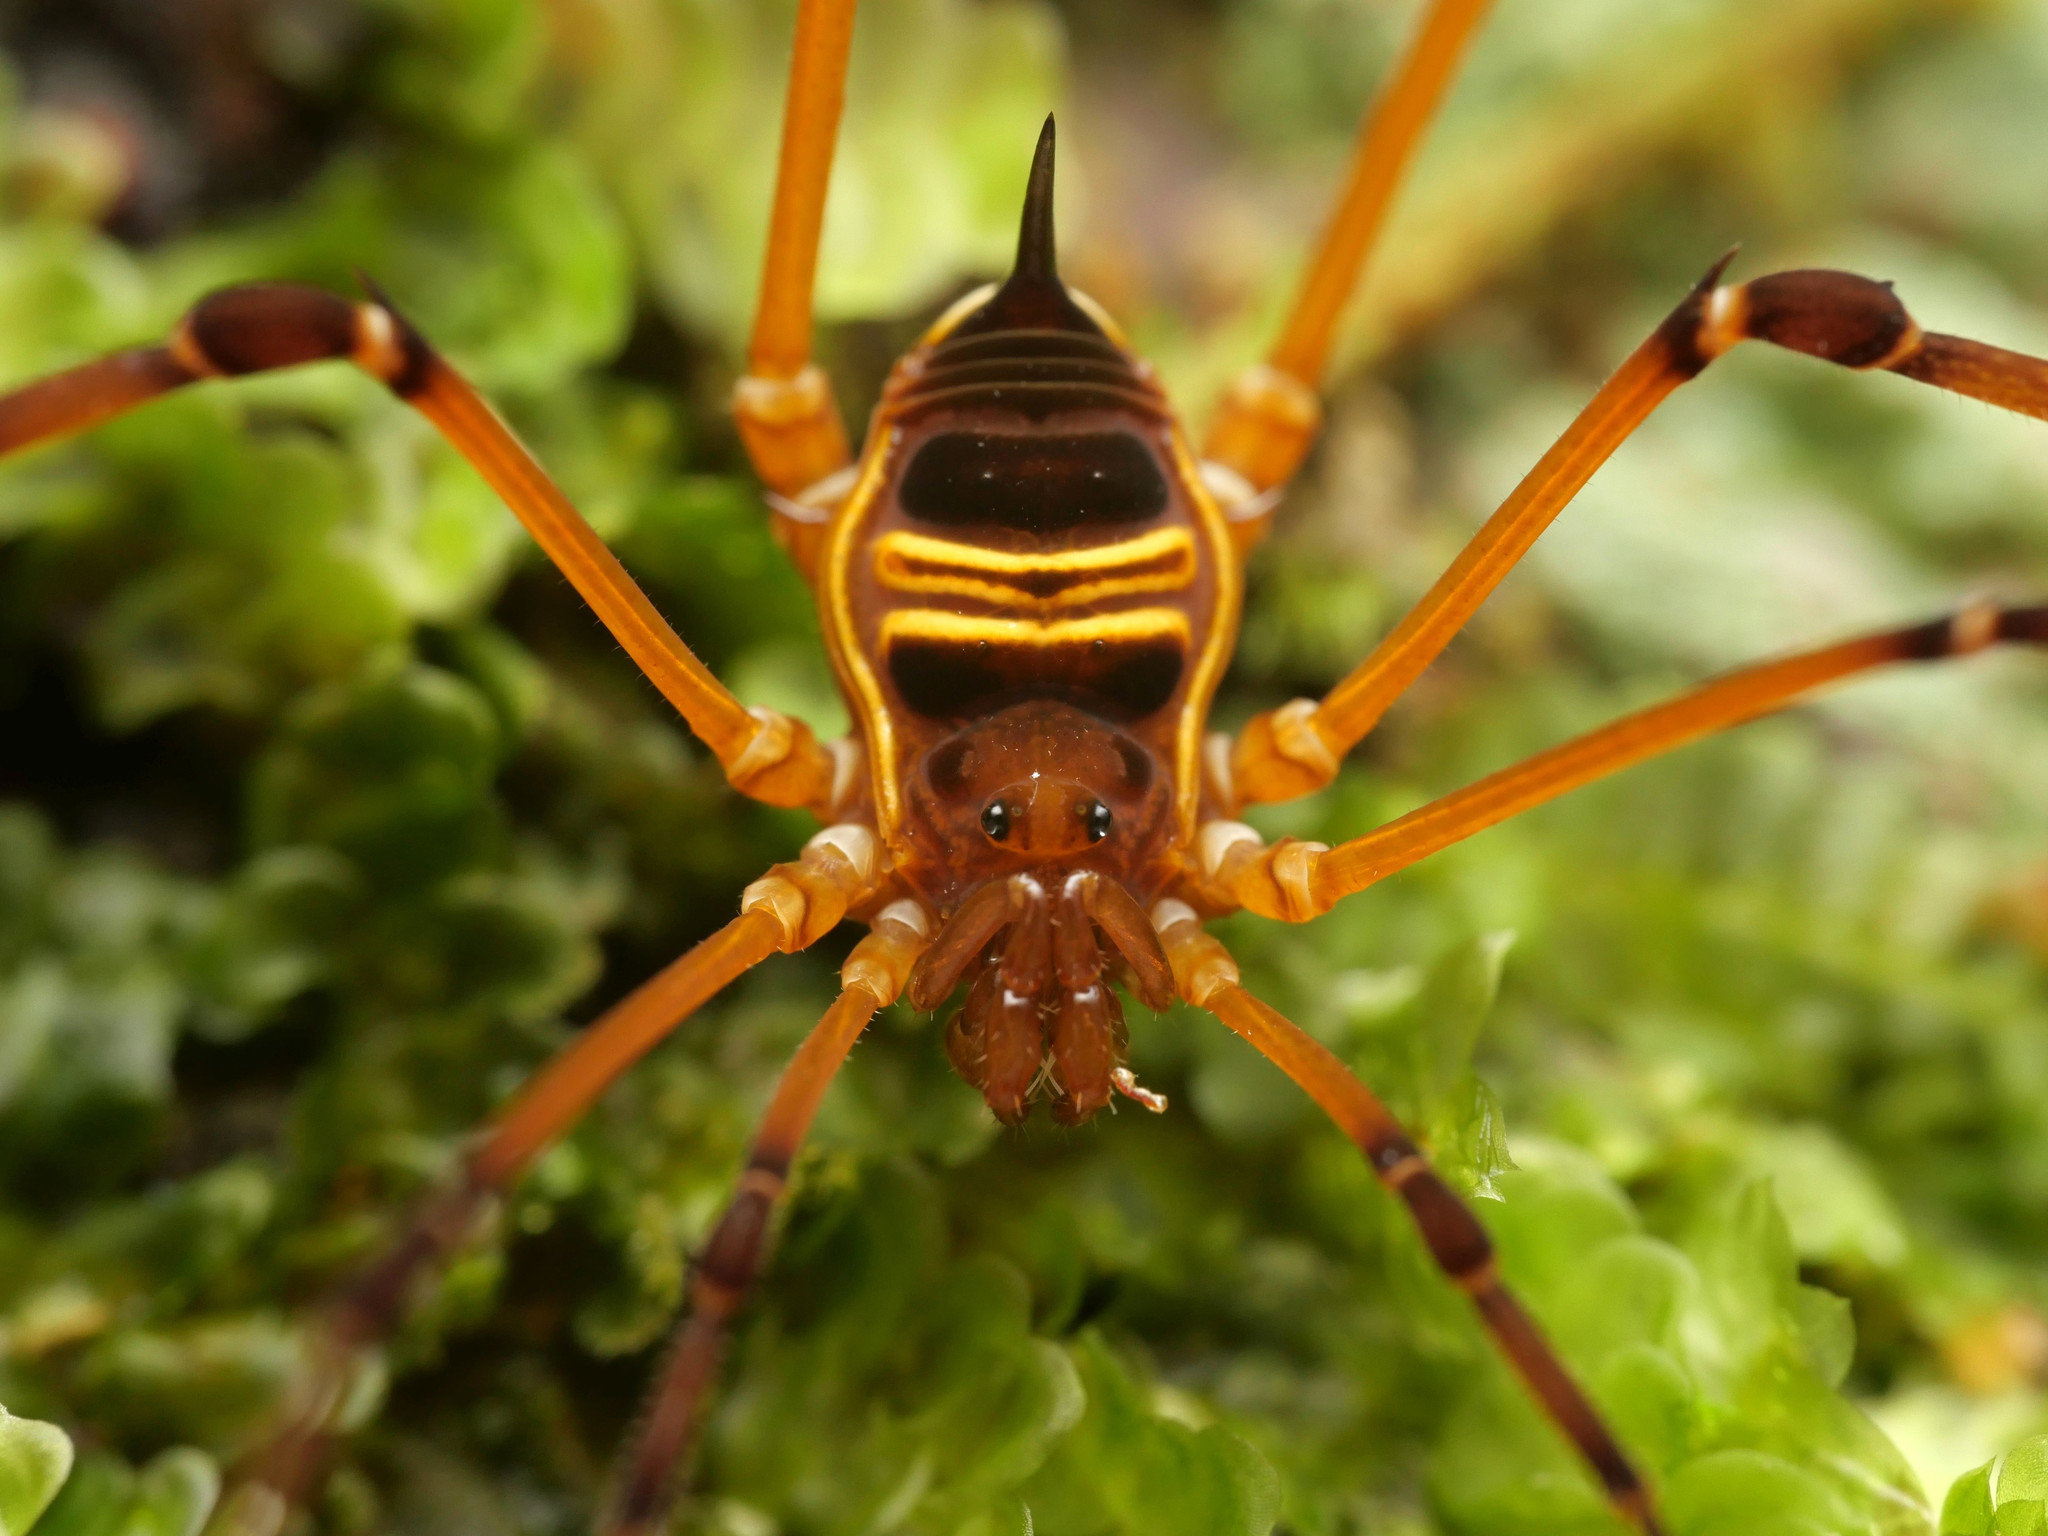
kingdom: Animalia
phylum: Arthropoda
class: Arachnida
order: Opiliones
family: Ampycidae
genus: Licornus
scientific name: Licornus atroluteus
